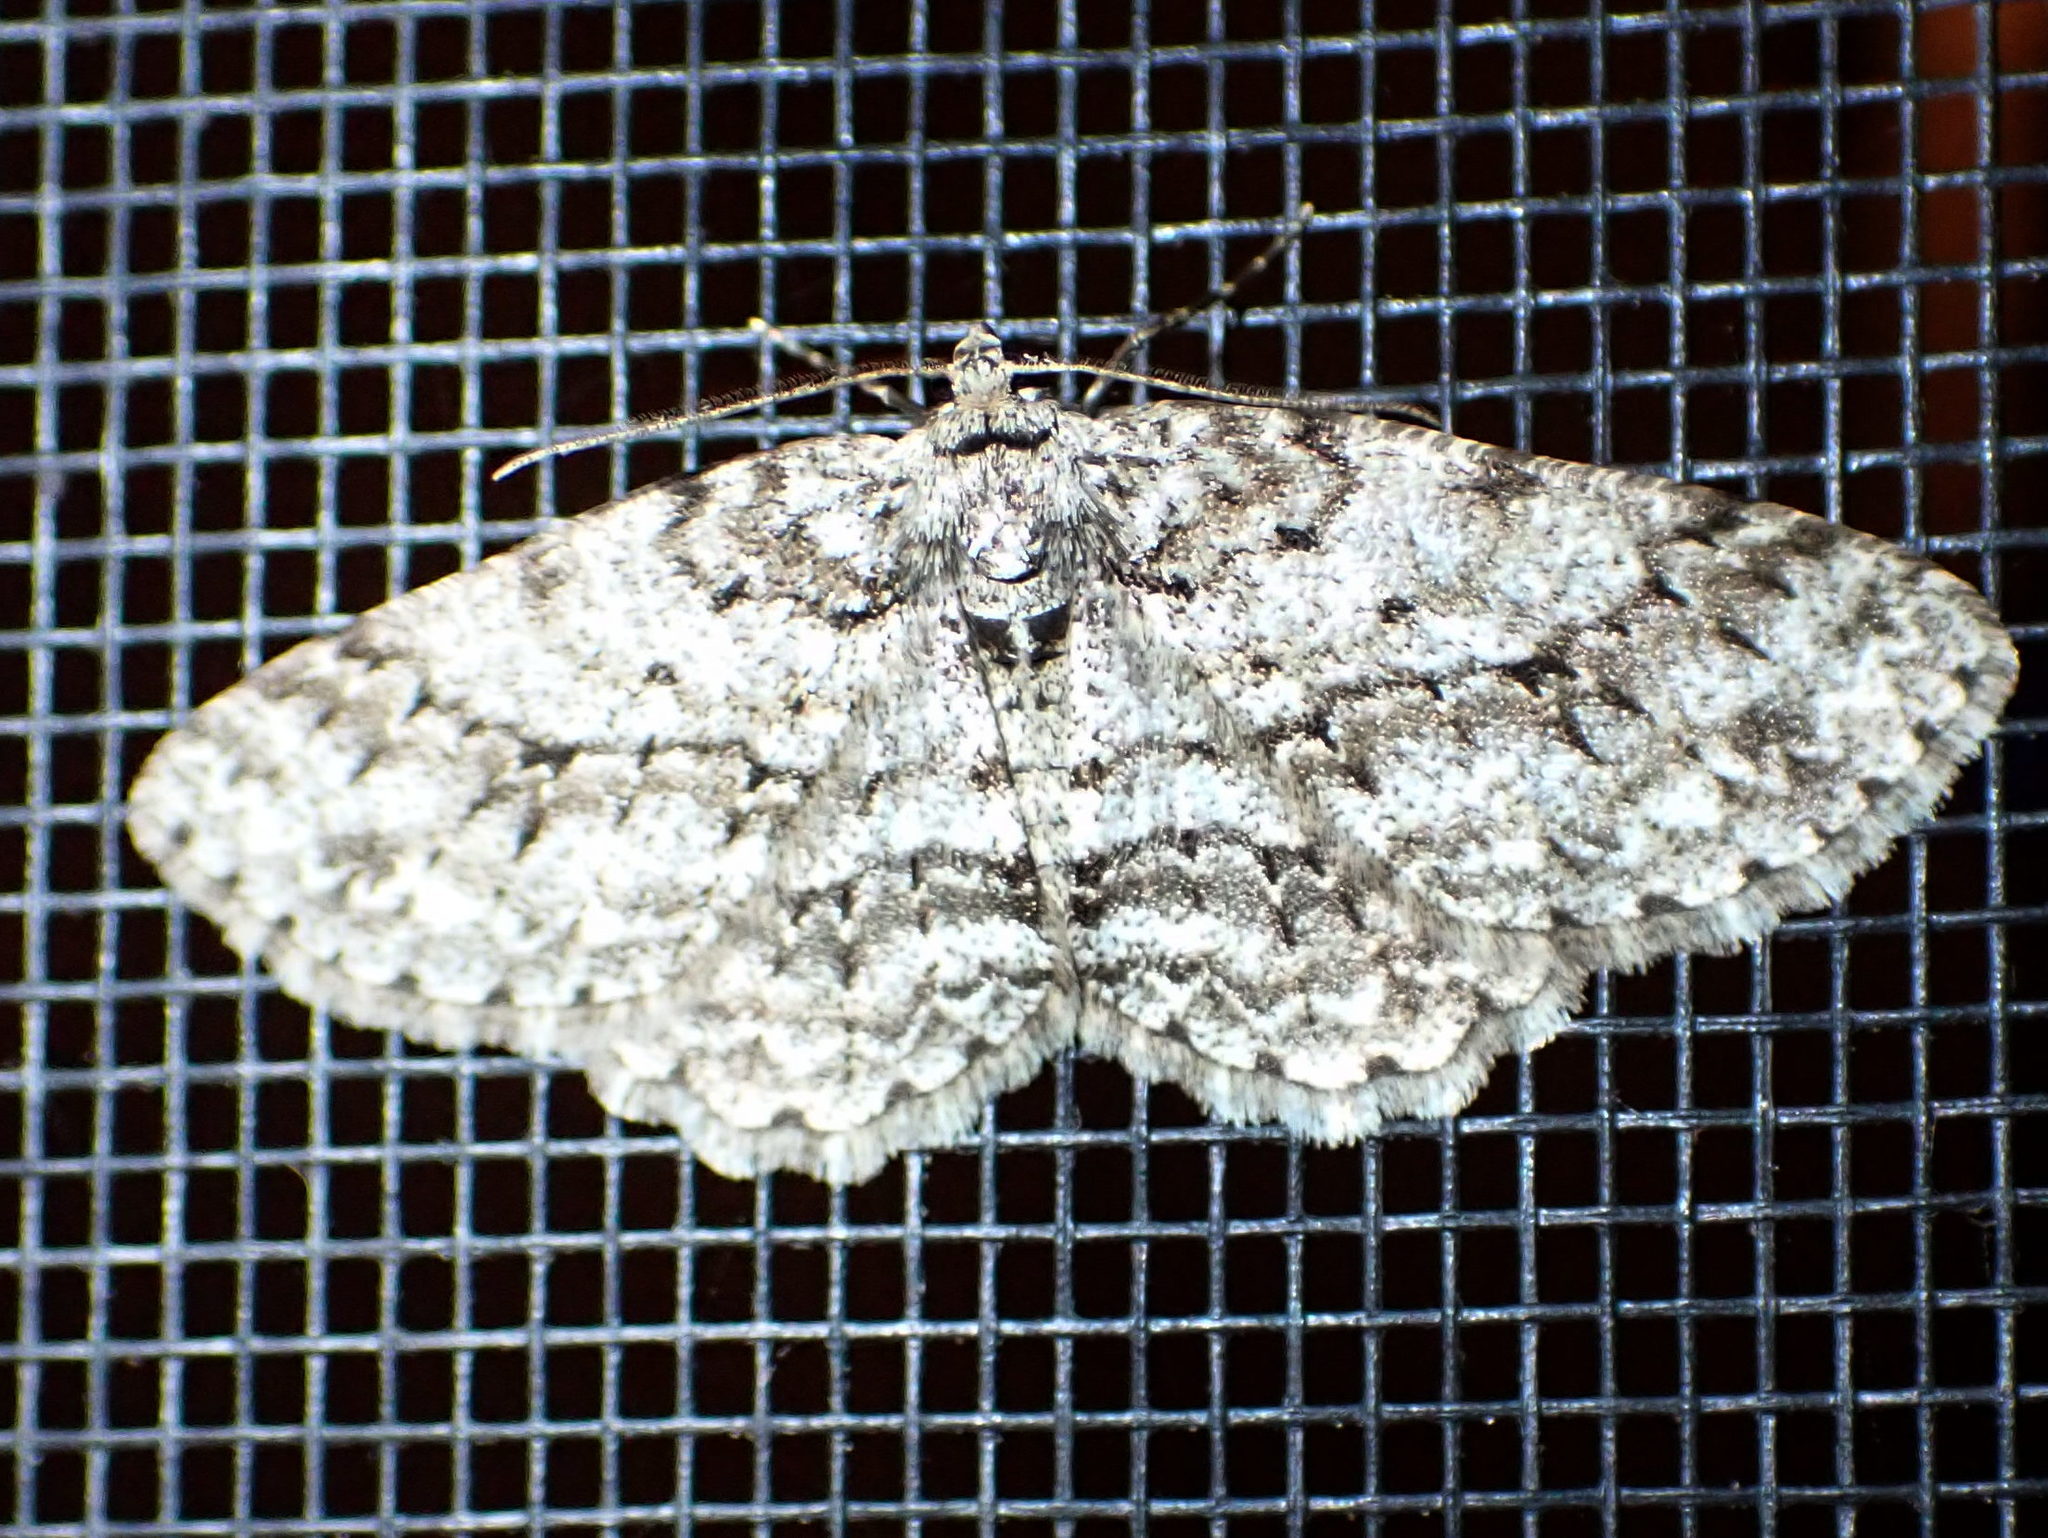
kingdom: Animalia
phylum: Arthropoda
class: Insecta
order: Lepidoptera
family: Geometridae
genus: Ectropis
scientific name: Ectropis crepuscularia
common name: Engrailed
